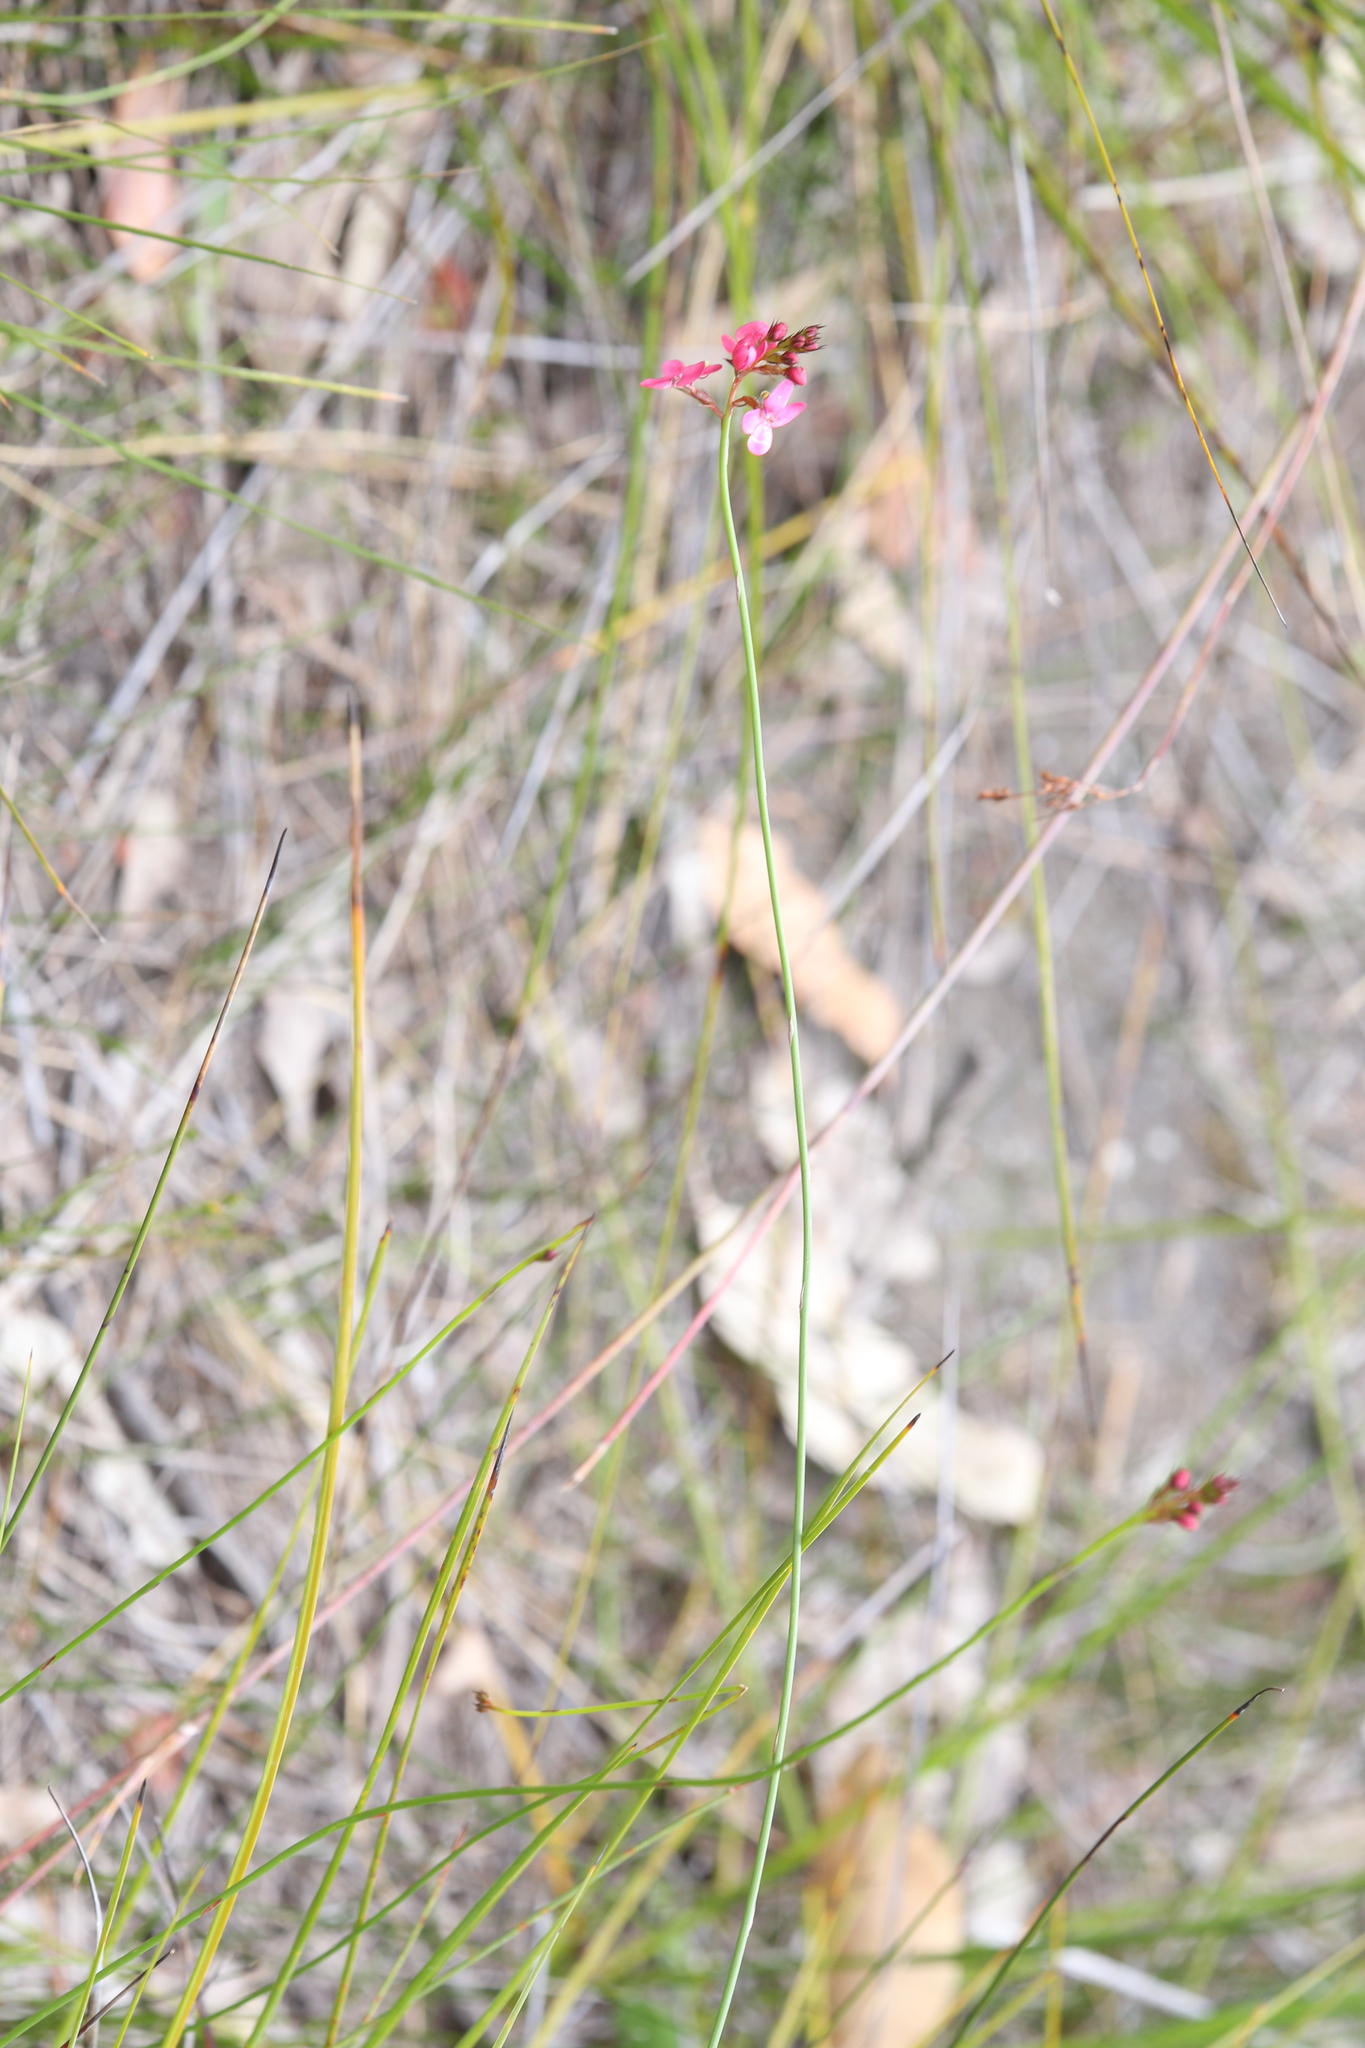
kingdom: Plantae
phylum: Tracheophyta
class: Magnoliopsida
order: Asterales
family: Stylidiaceae
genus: Stylidium
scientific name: Stylidium squamosotuberosum
